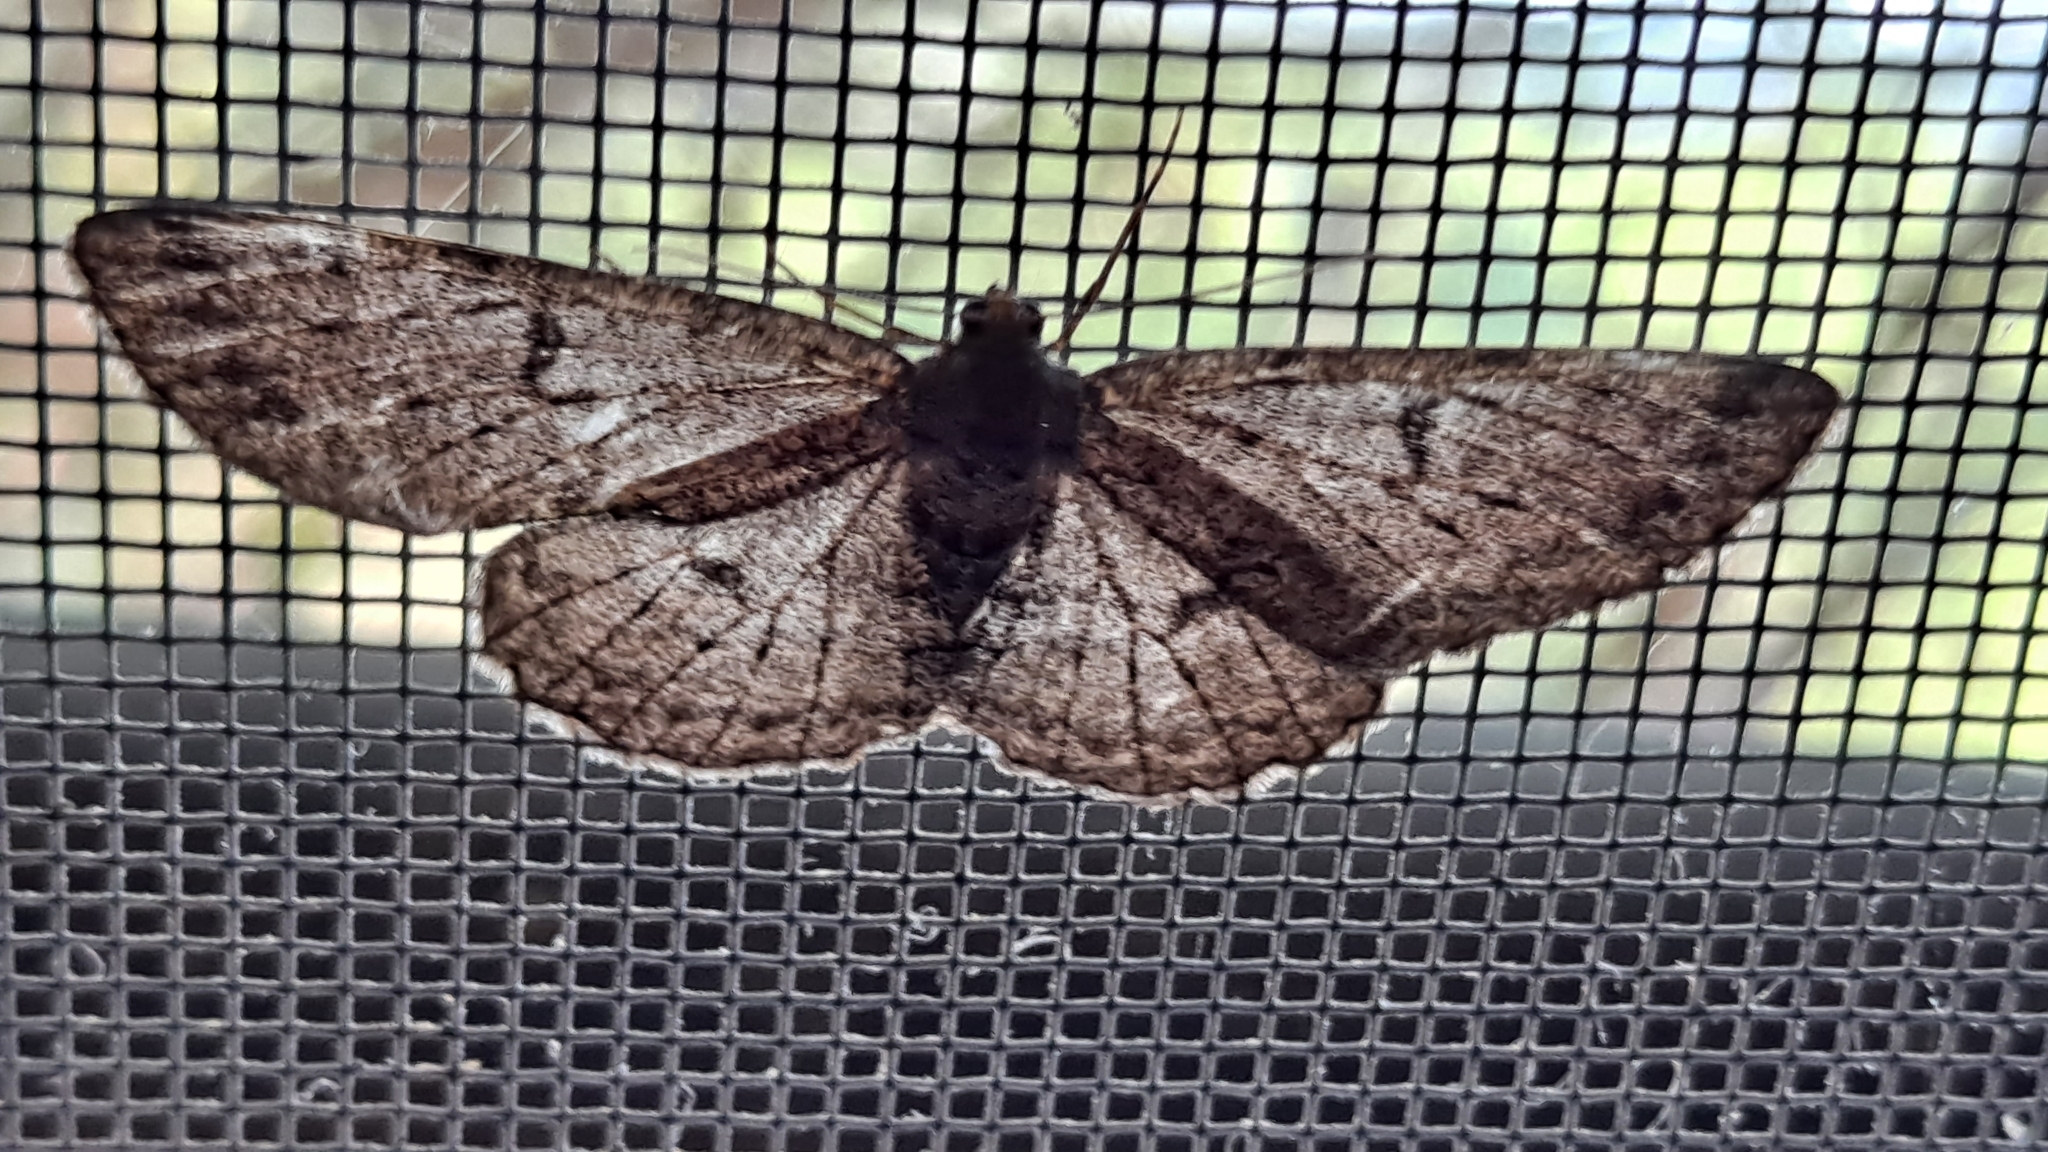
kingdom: Animalia
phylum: Arthropoda
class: Insecta
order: Lepidoptera
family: Geometridae
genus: Hypomecis
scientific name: Hypomecis punctinalis
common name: Pale oak beauty
